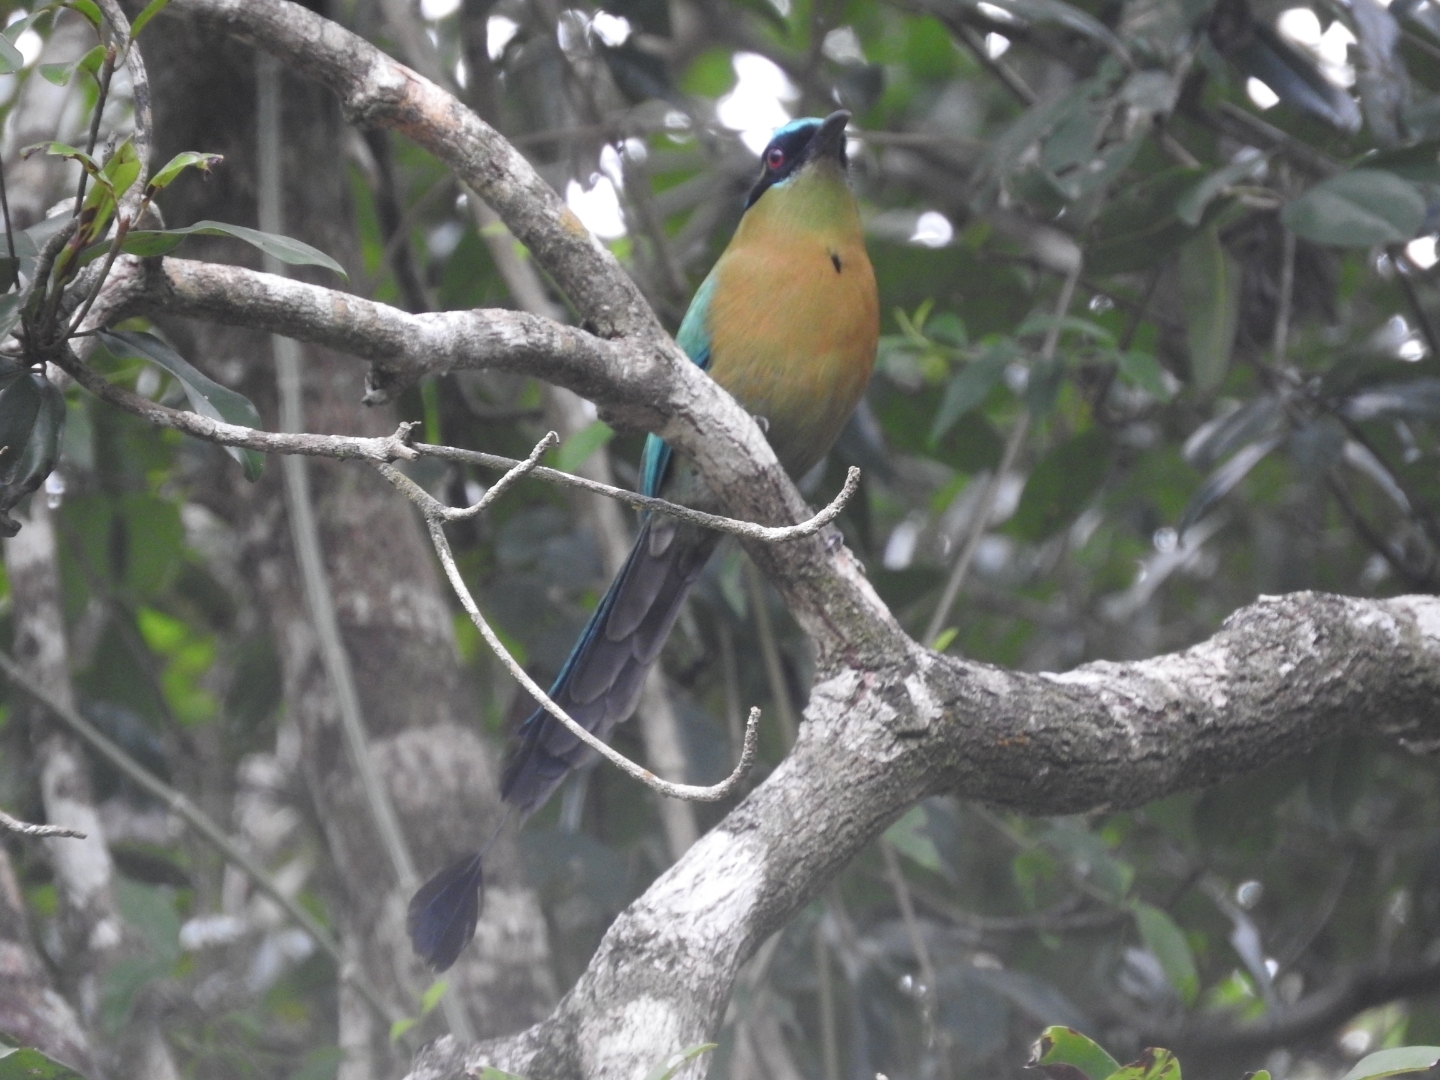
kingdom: Animalia
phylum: Chordata
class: Aves
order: Coraciiformes
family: Momotidae
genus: Momotus
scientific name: Momotus lessonii
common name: Lesson's motmot
